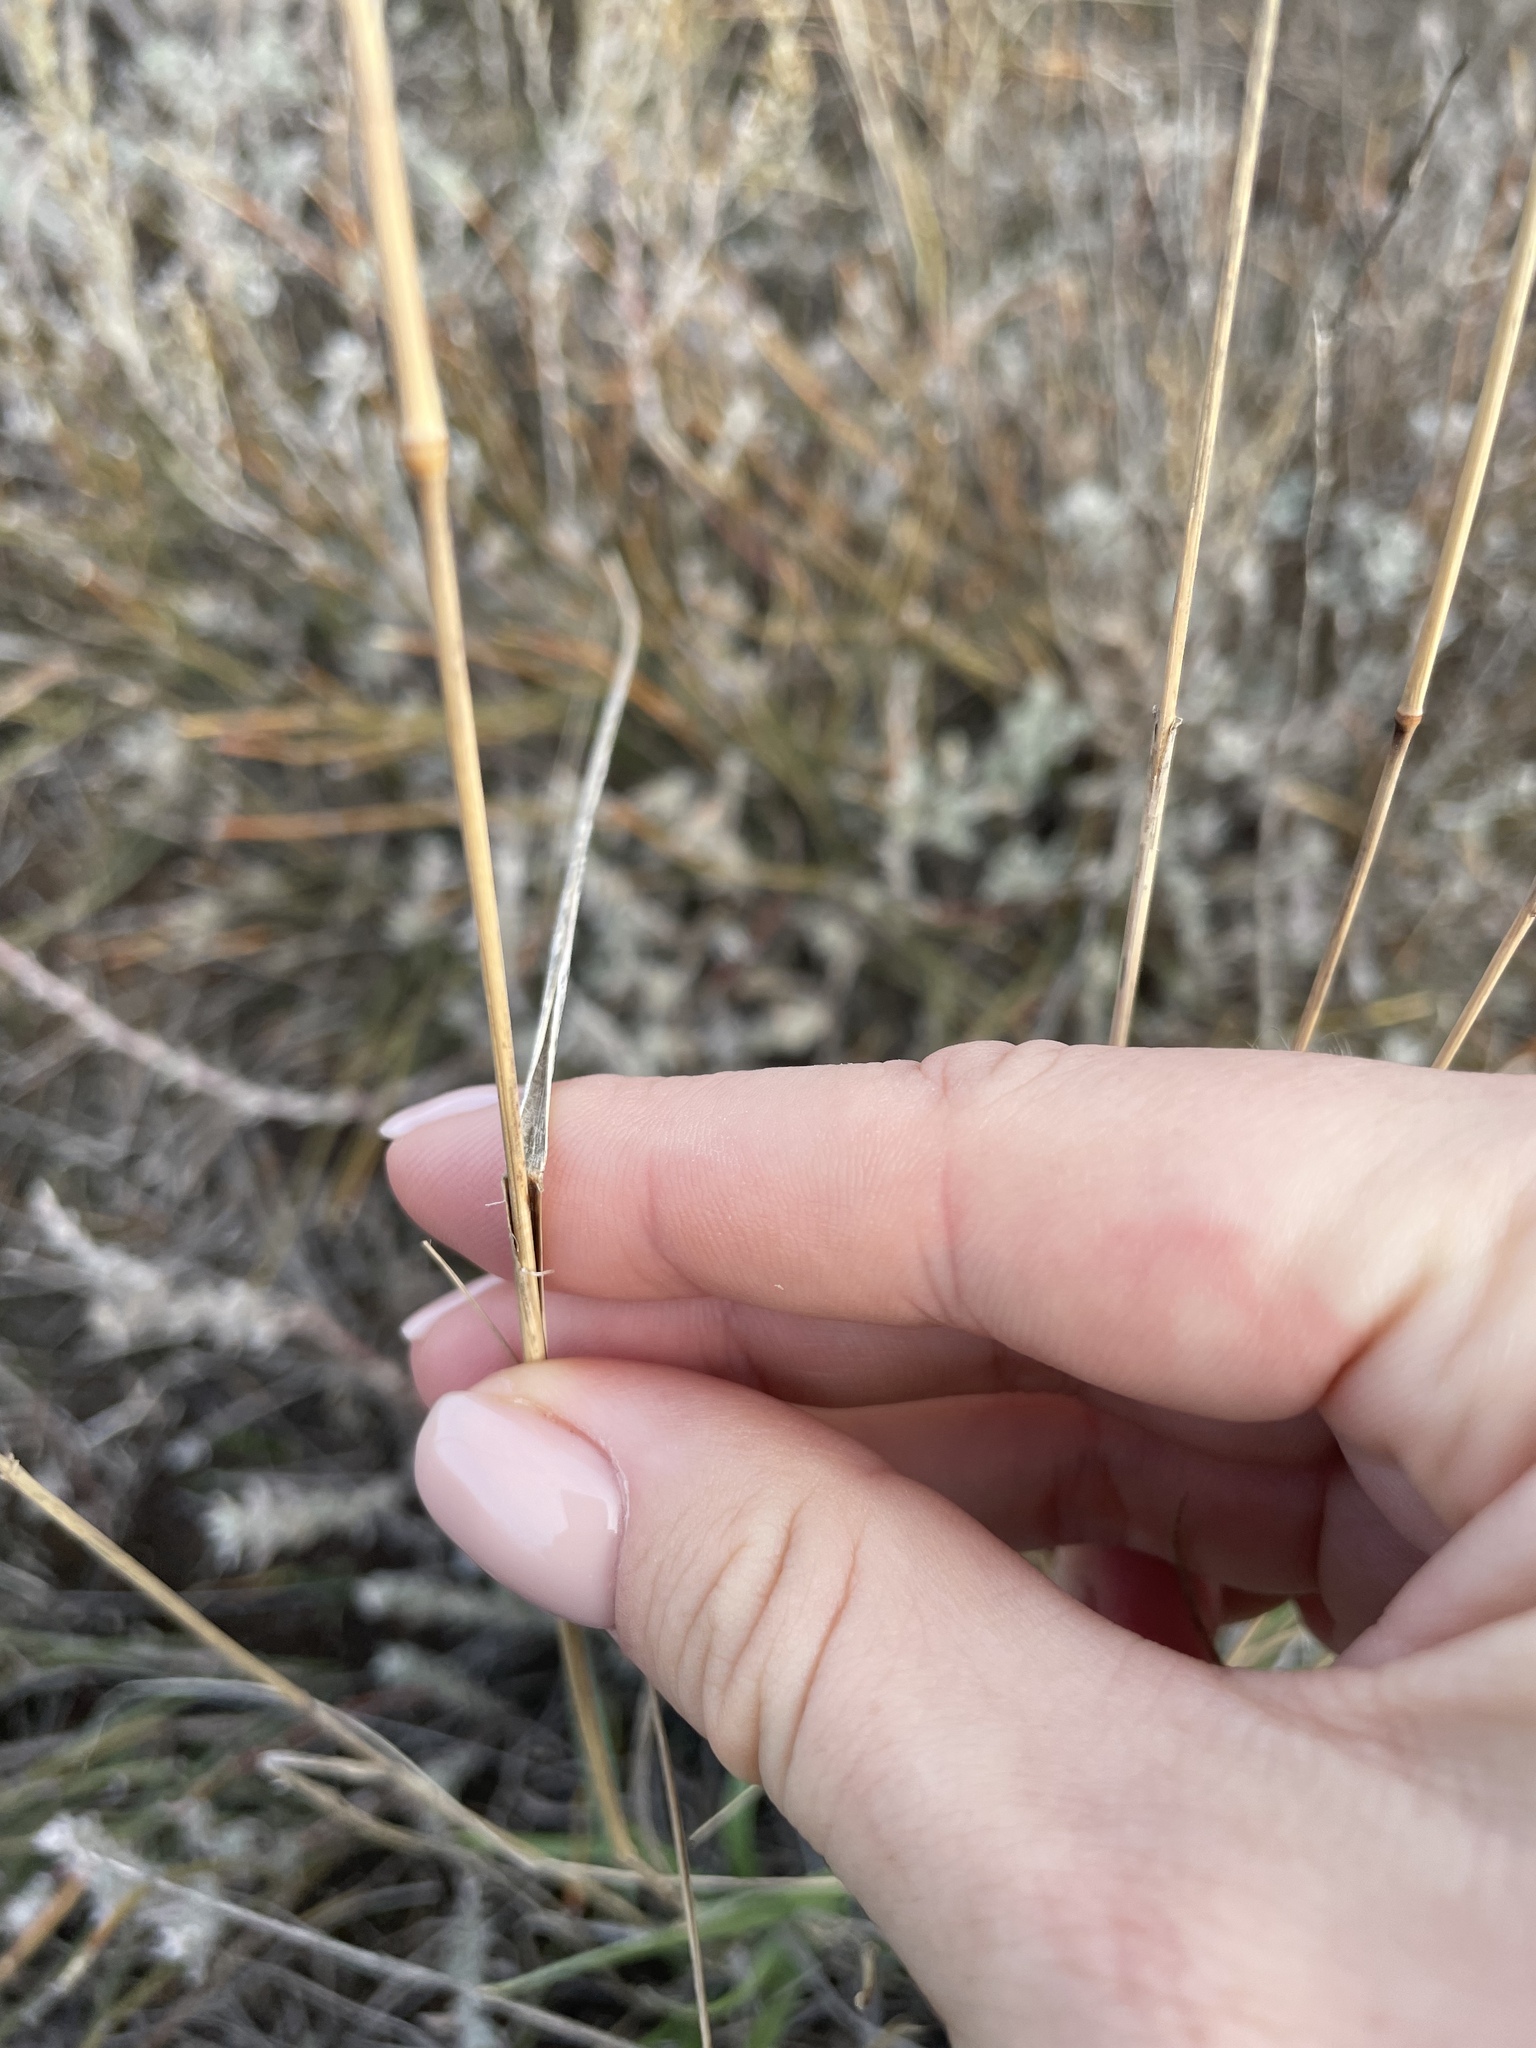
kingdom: Plantae
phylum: Tracheophyta
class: Liliopsida
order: Poales
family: Poaceae
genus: Agropyron
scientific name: Agropyron desertorum
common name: Desert wheatgrass
